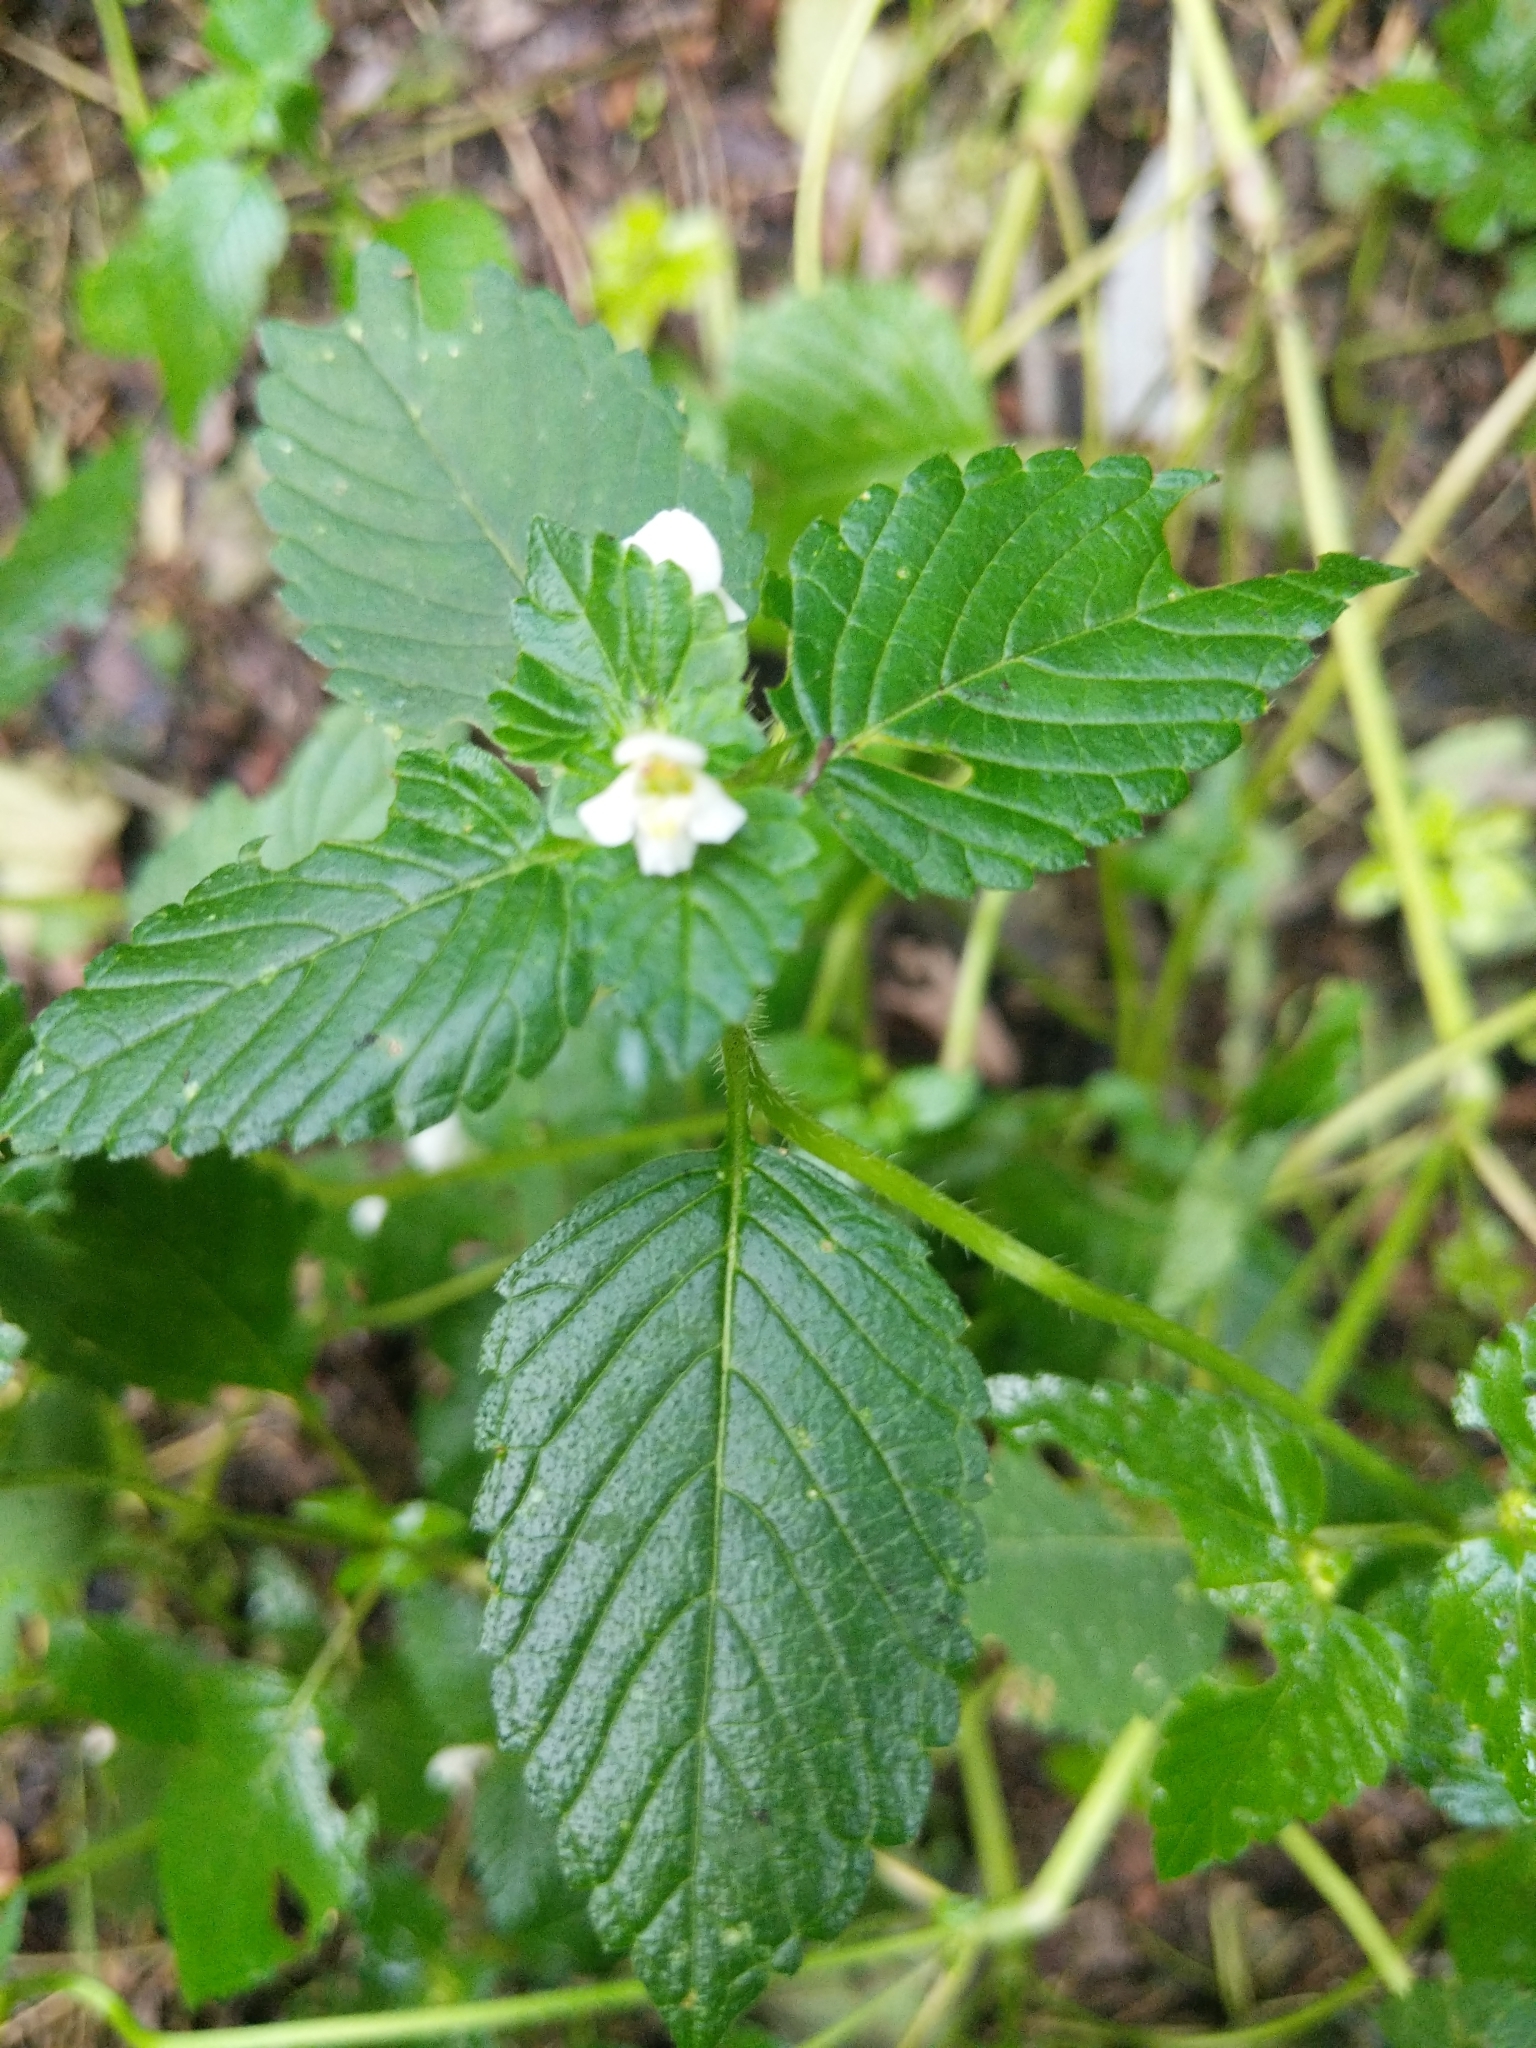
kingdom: Plantae
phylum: Tracheophyta
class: Magnoliopsida
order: Lamiales
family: Lamiaceae
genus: Galeopsis
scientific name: Galeopsis tetrahit
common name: Common hemp-nettle
